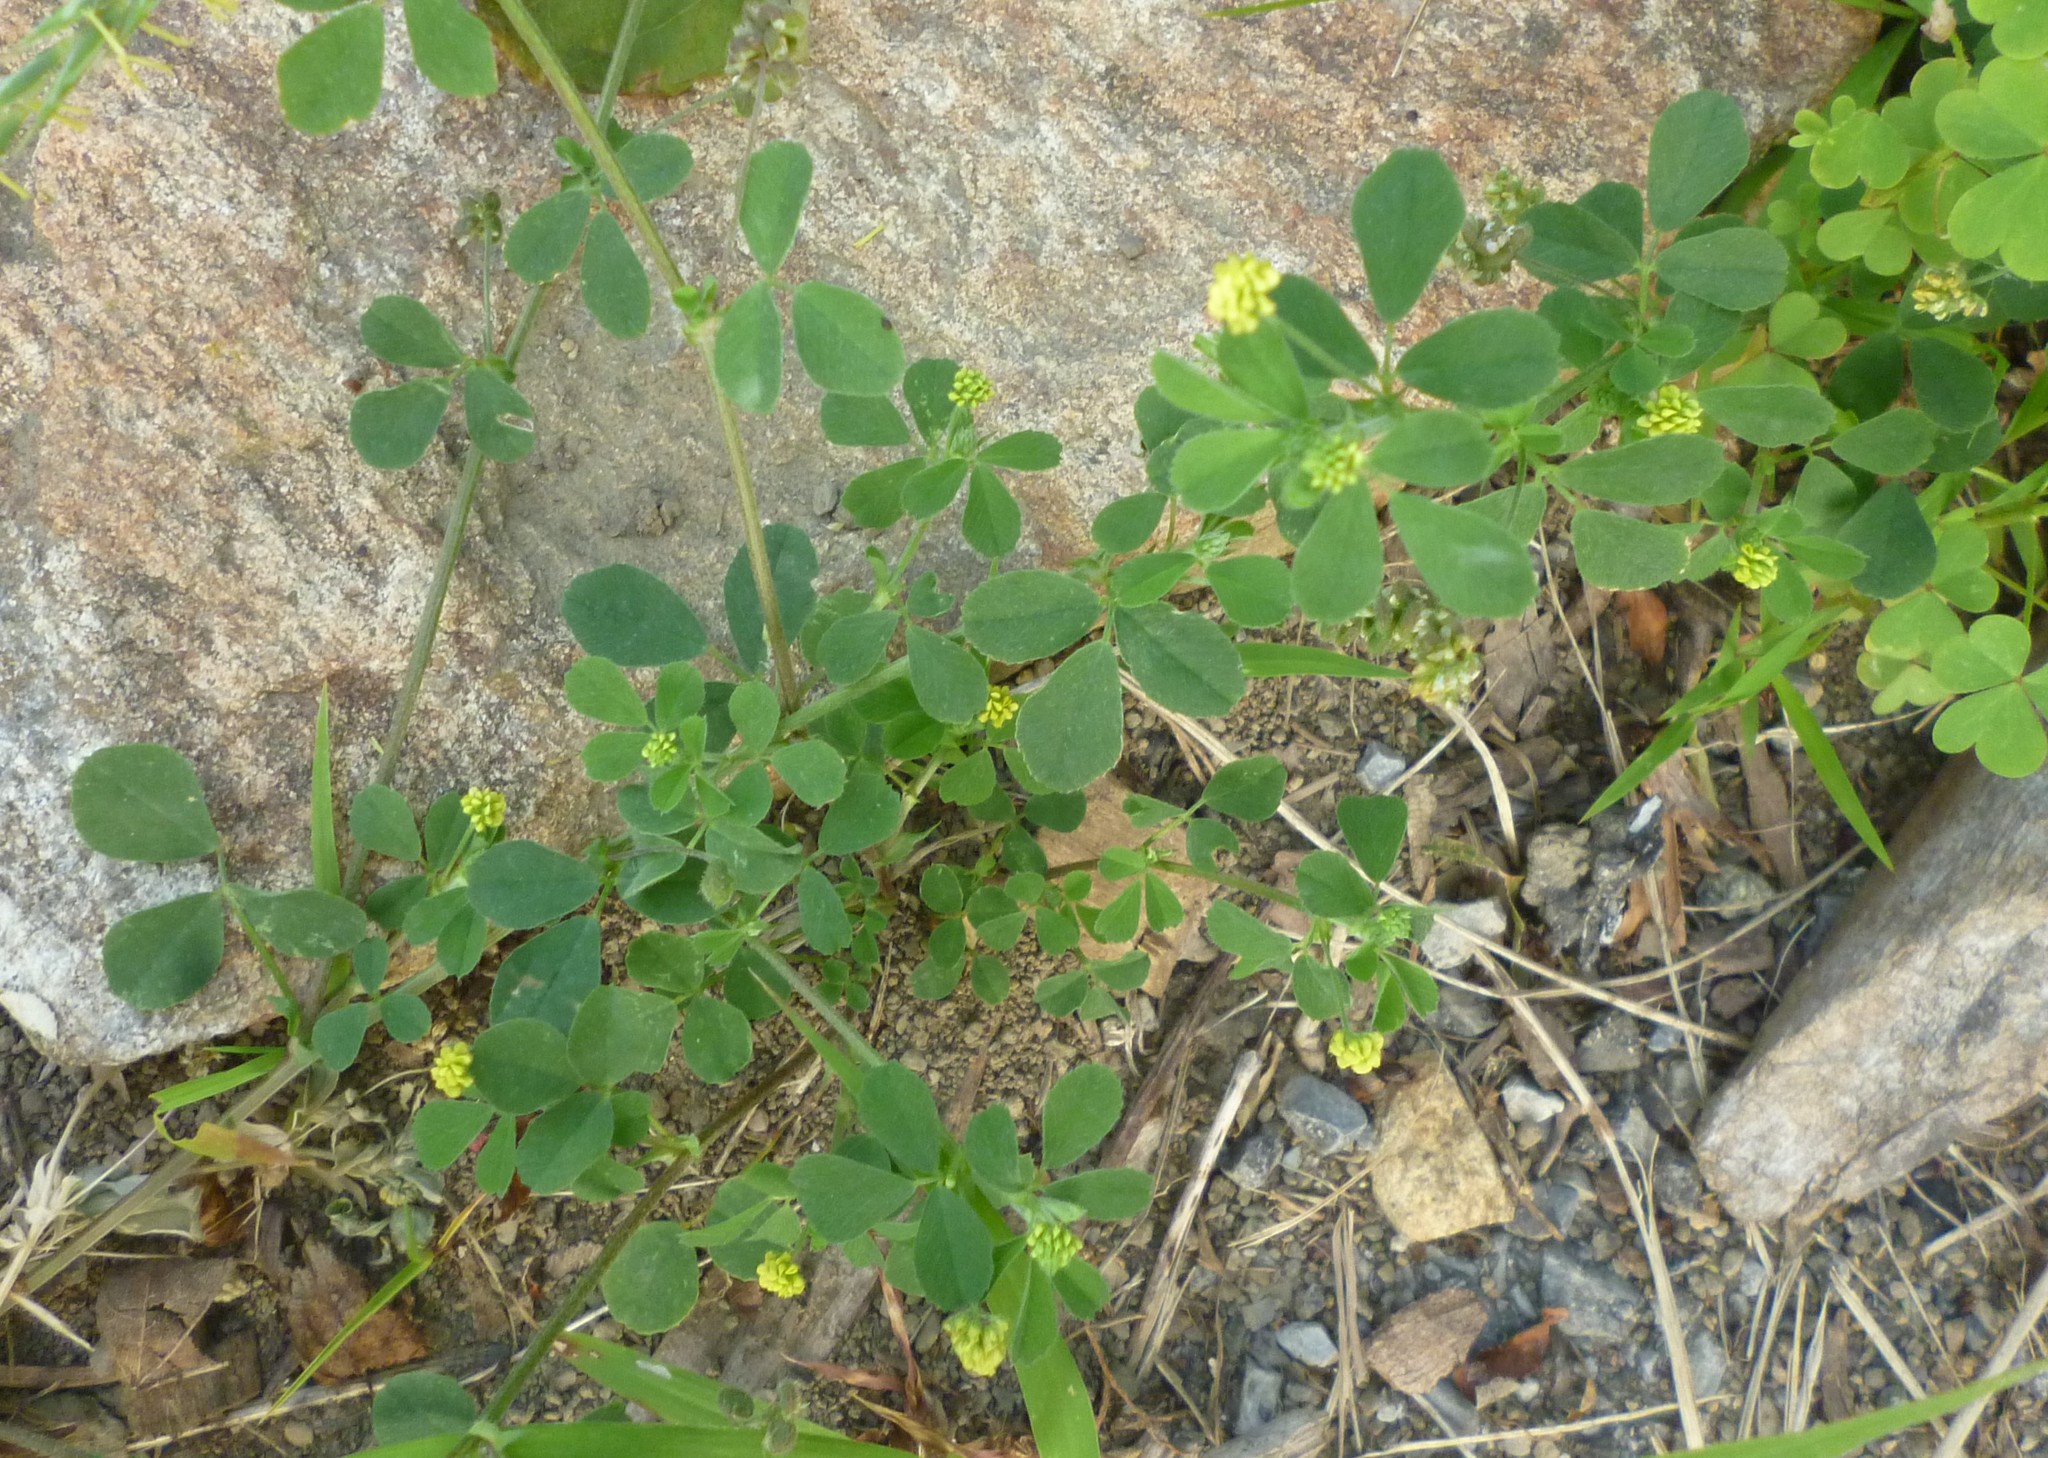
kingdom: Plantae
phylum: Tracheophyta
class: Magnoliopsida
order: Fabales
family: Fabaceae
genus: Medicago
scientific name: Medicago lupulina
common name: Black medick
